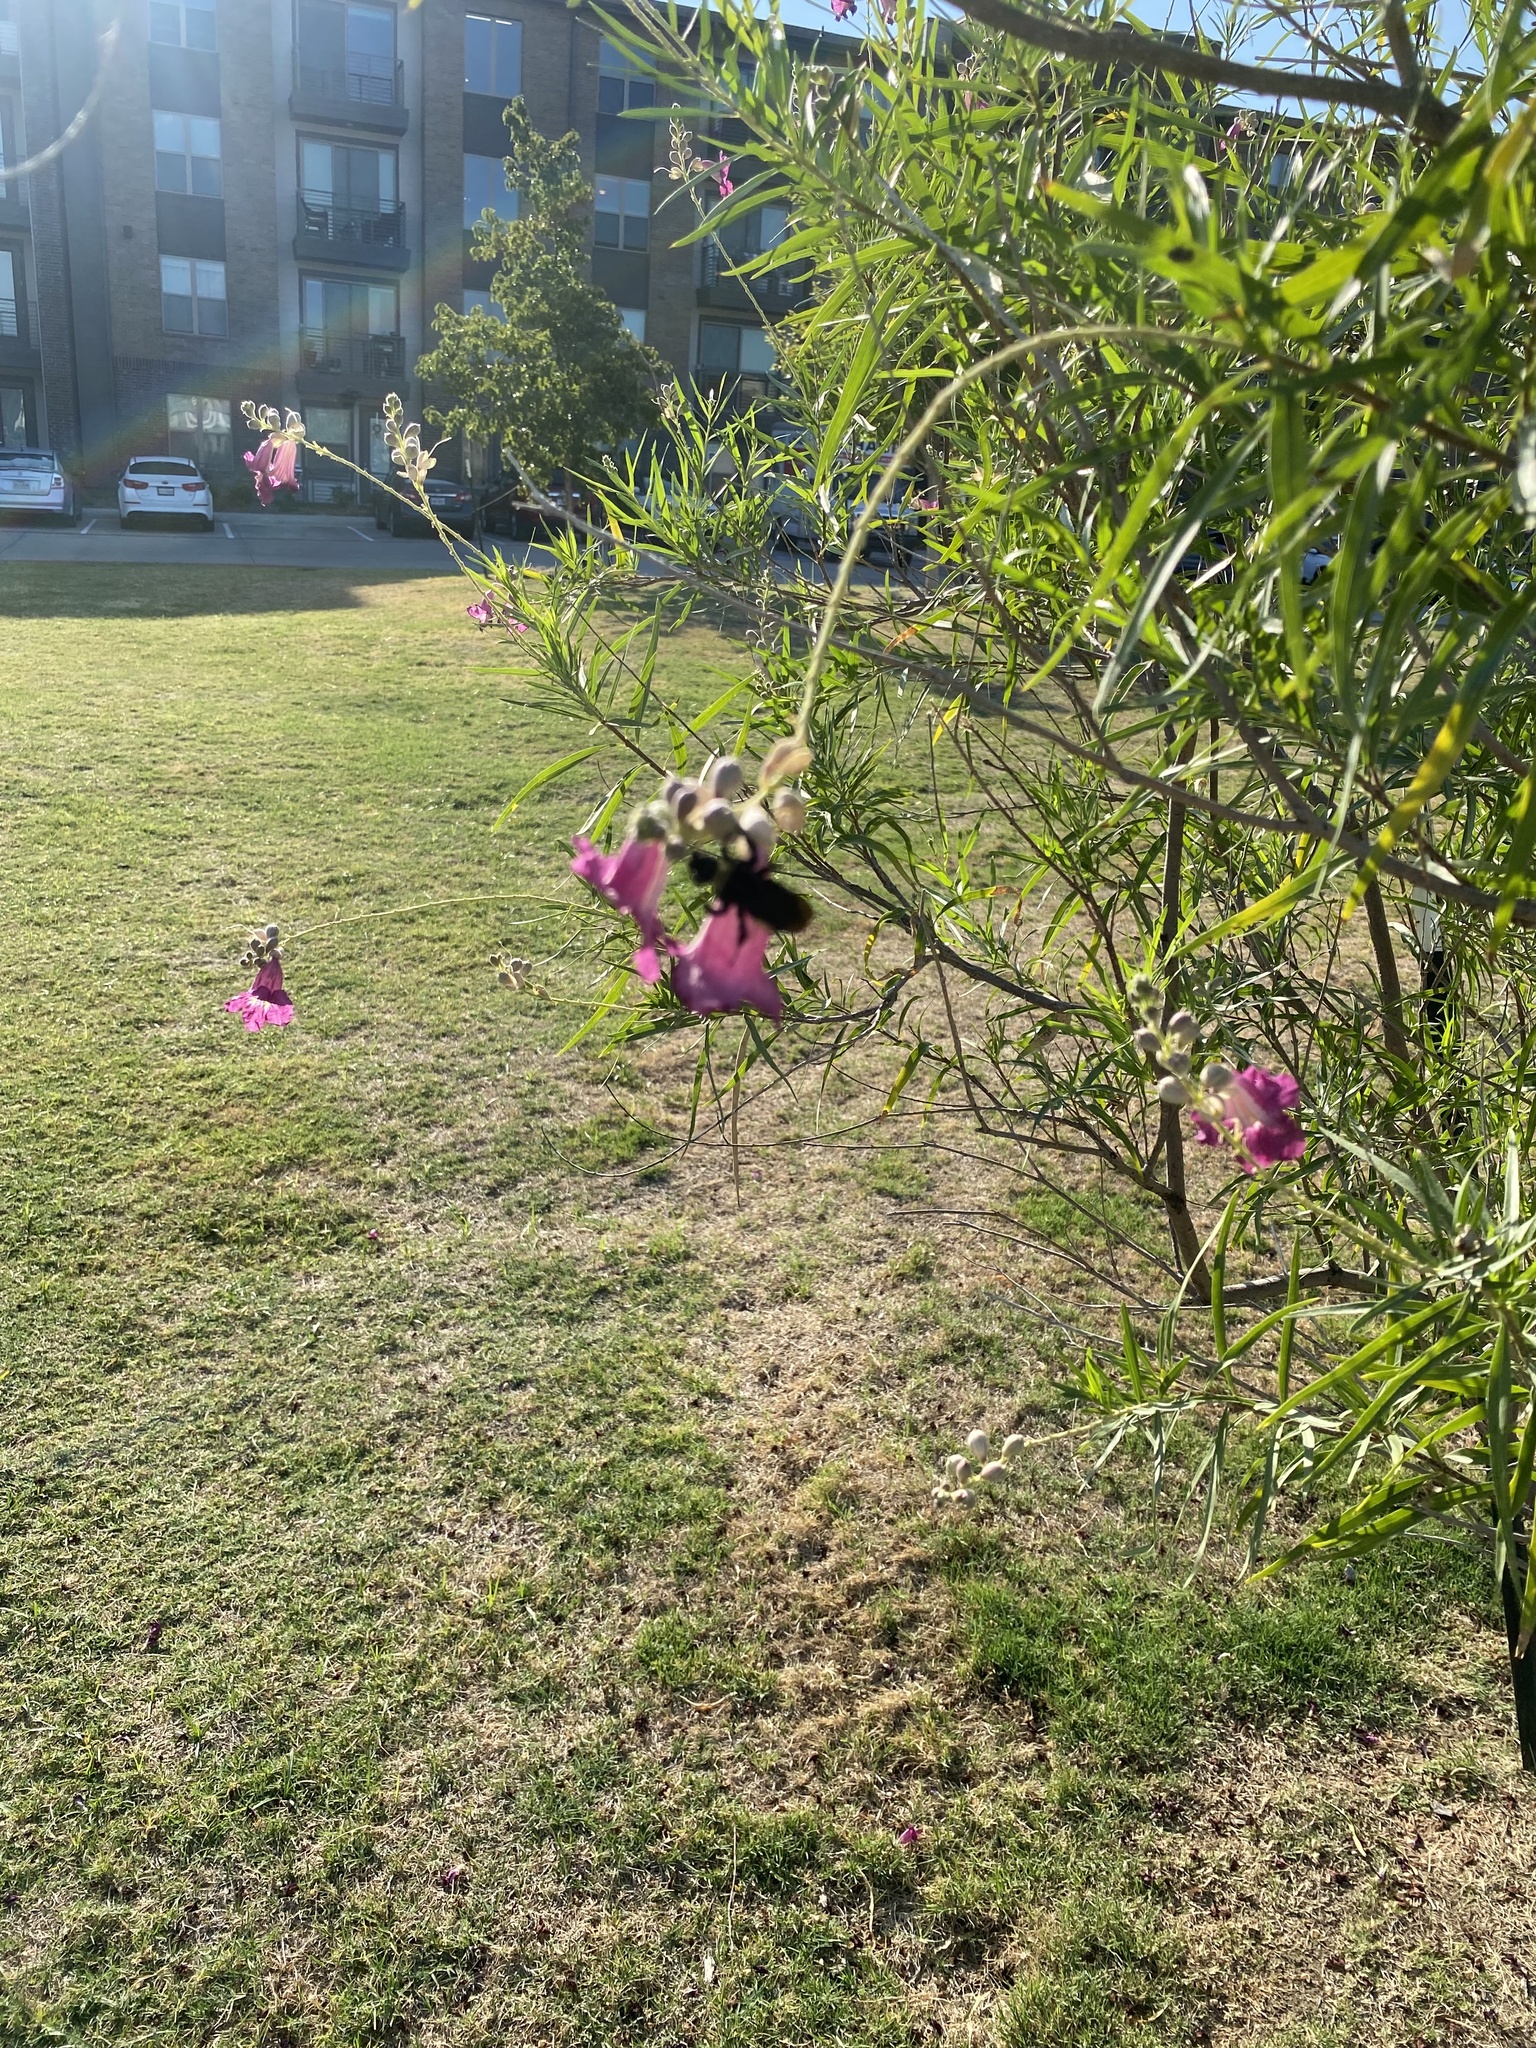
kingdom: Animalia
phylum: Arthropoda
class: Insecta
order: Hymenoptera
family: Apidae
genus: Bombus
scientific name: Bombus pensylvanicus
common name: Bumble bee
